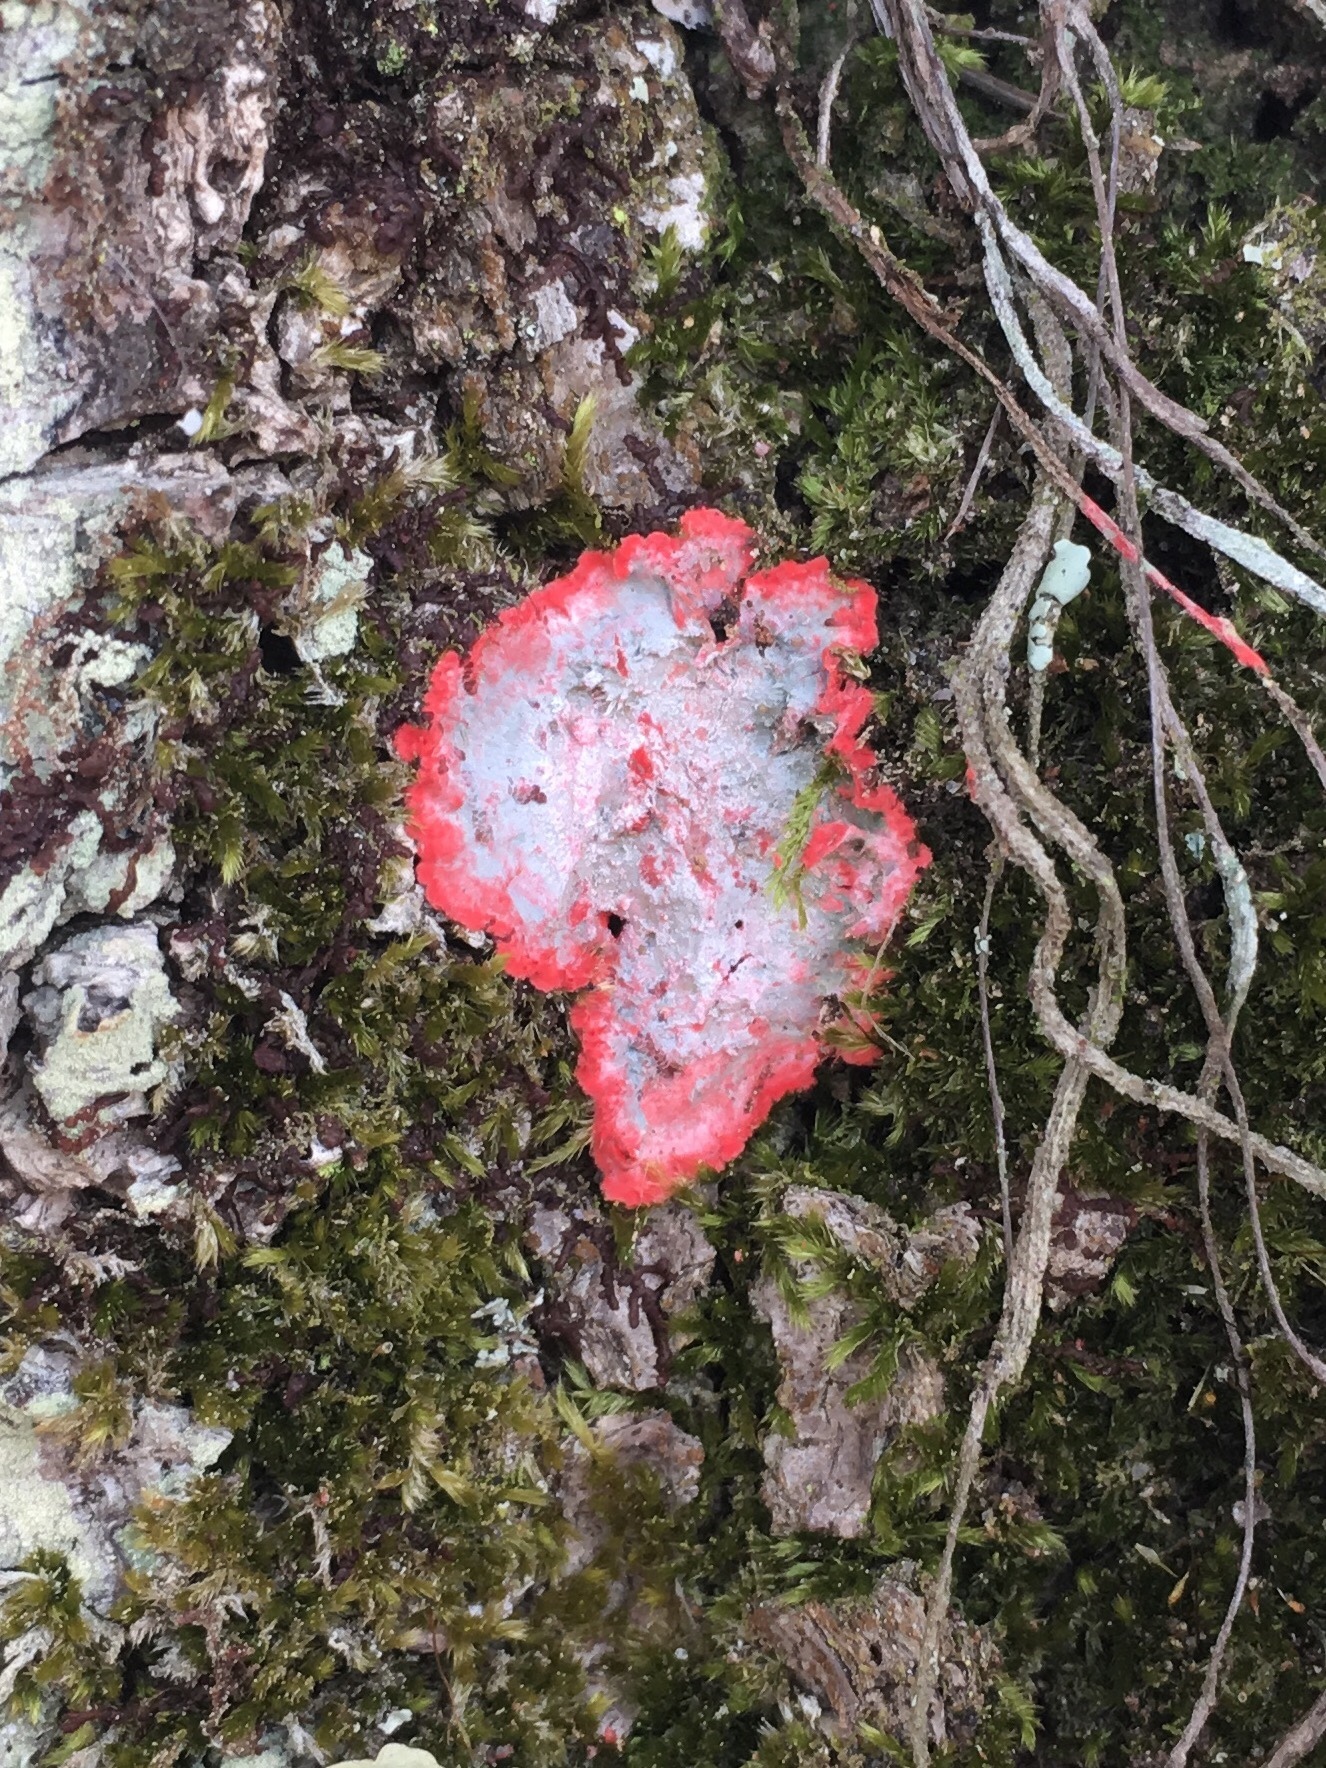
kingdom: Fungi
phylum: Ascomycota
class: Arthoniomycetes
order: Arthoniales
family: Arthoniaceae
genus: Herpothallon
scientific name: Herpothallon rubrocinctum
